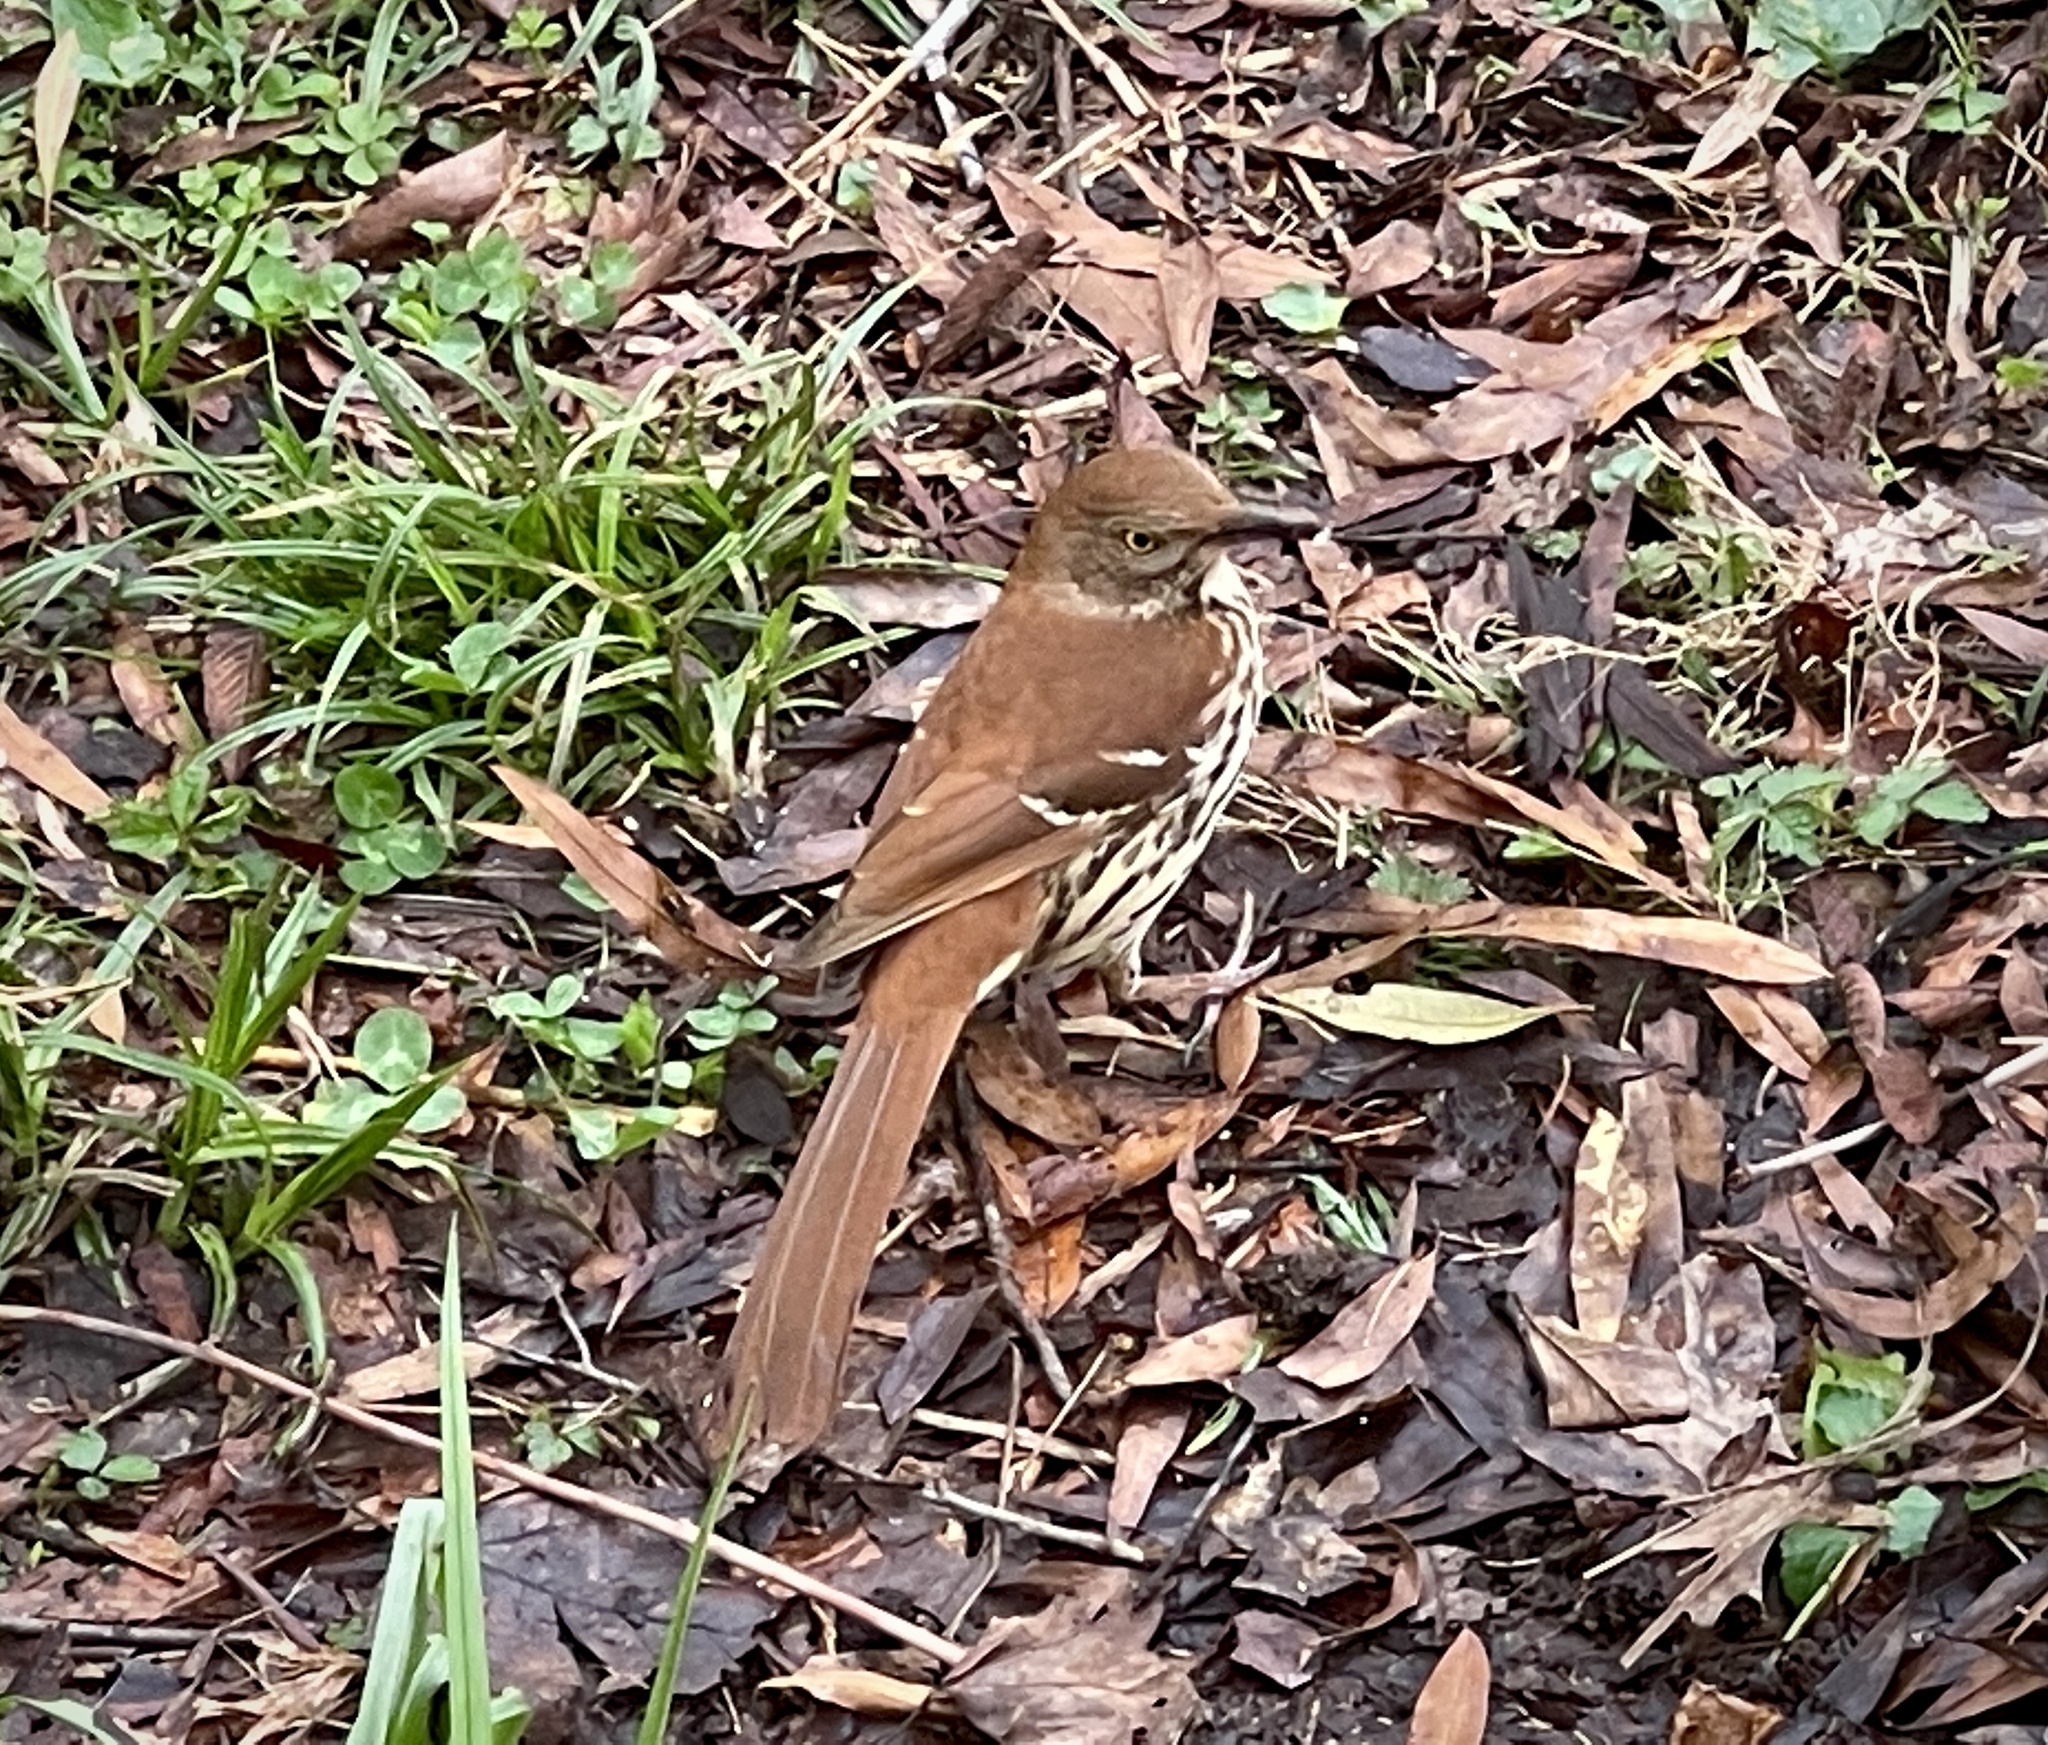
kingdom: Animalia
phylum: Chordata
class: Aves
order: Passeriformes
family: Mimidae
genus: Toxostoma
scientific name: Toxostoma rufum
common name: Brown thrasher
